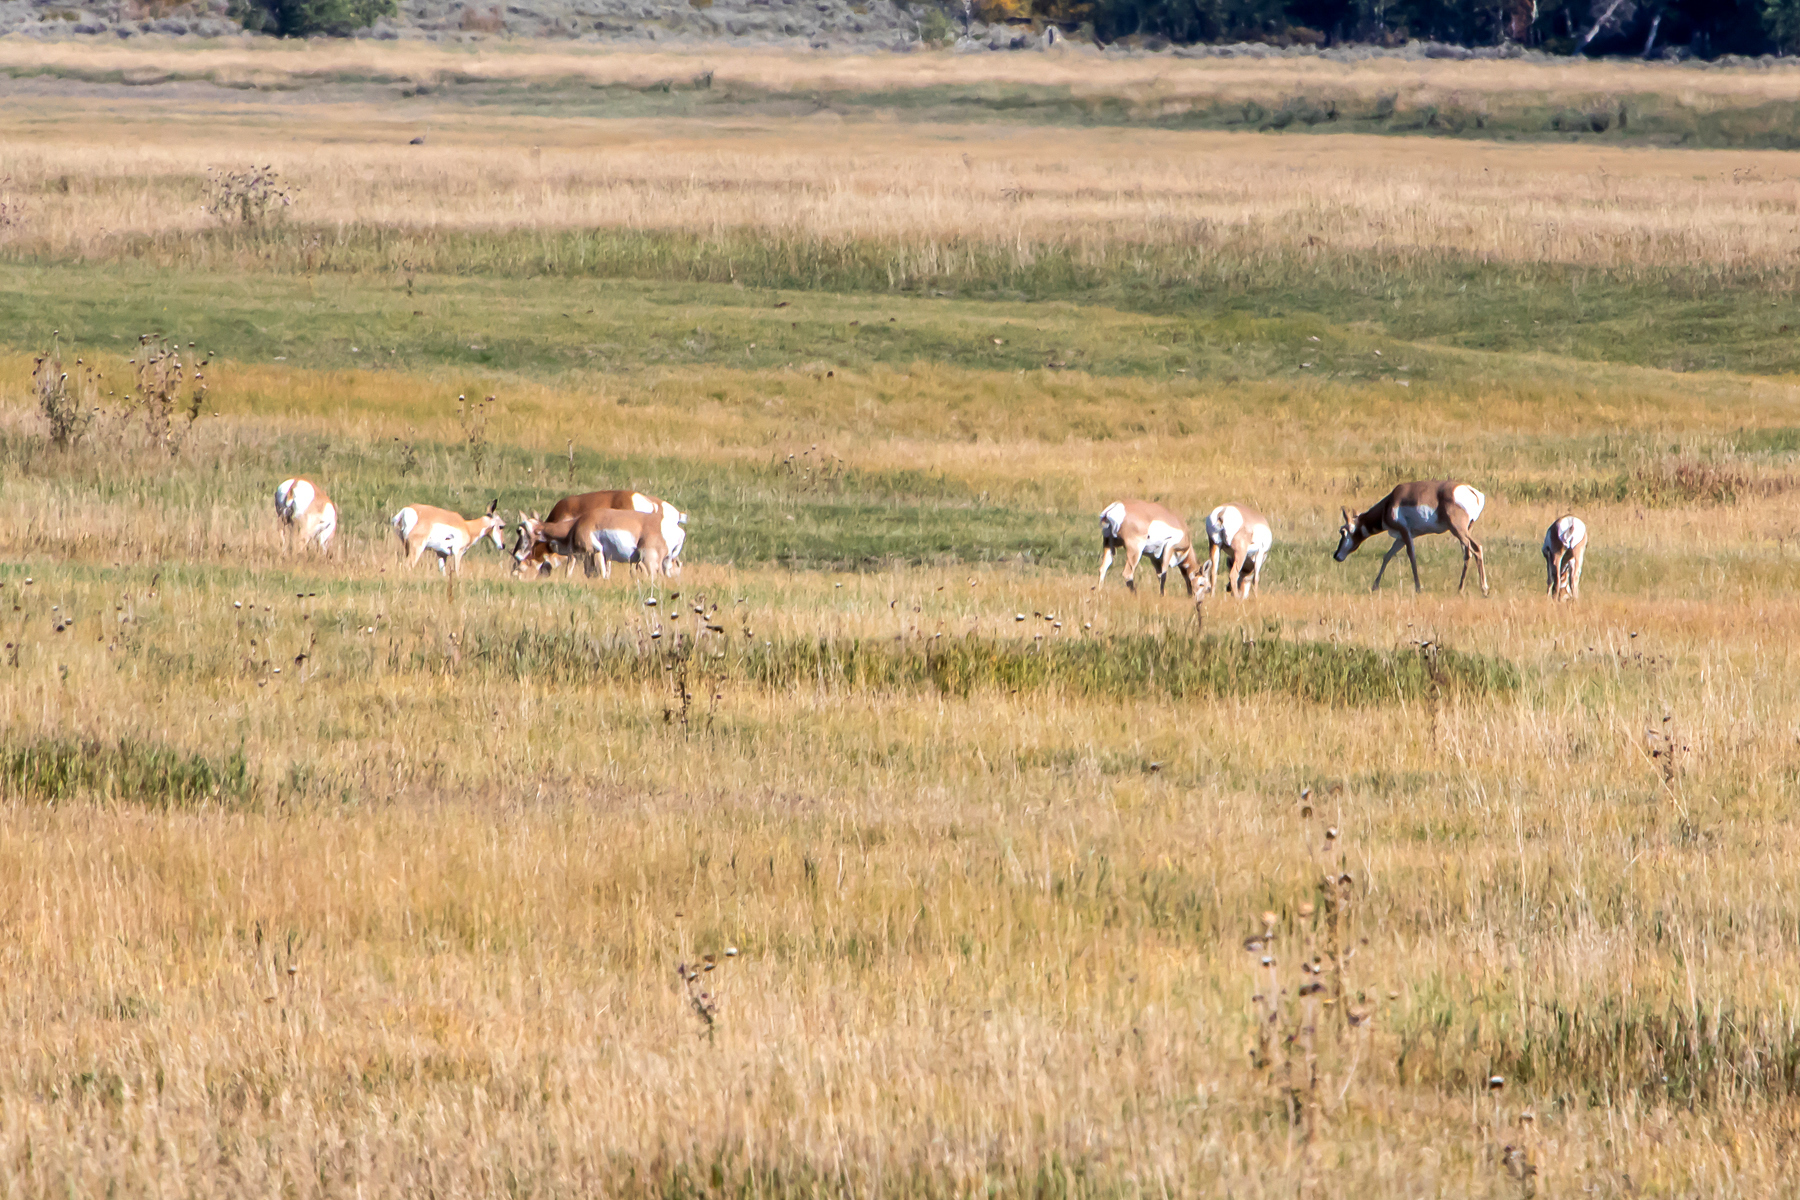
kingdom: Animalia
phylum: Chordata
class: Mammalia
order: Artiodactyla
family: Antilocapridae
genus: Antilocapra
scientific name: Antilocapra americana
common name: Pronghorn
